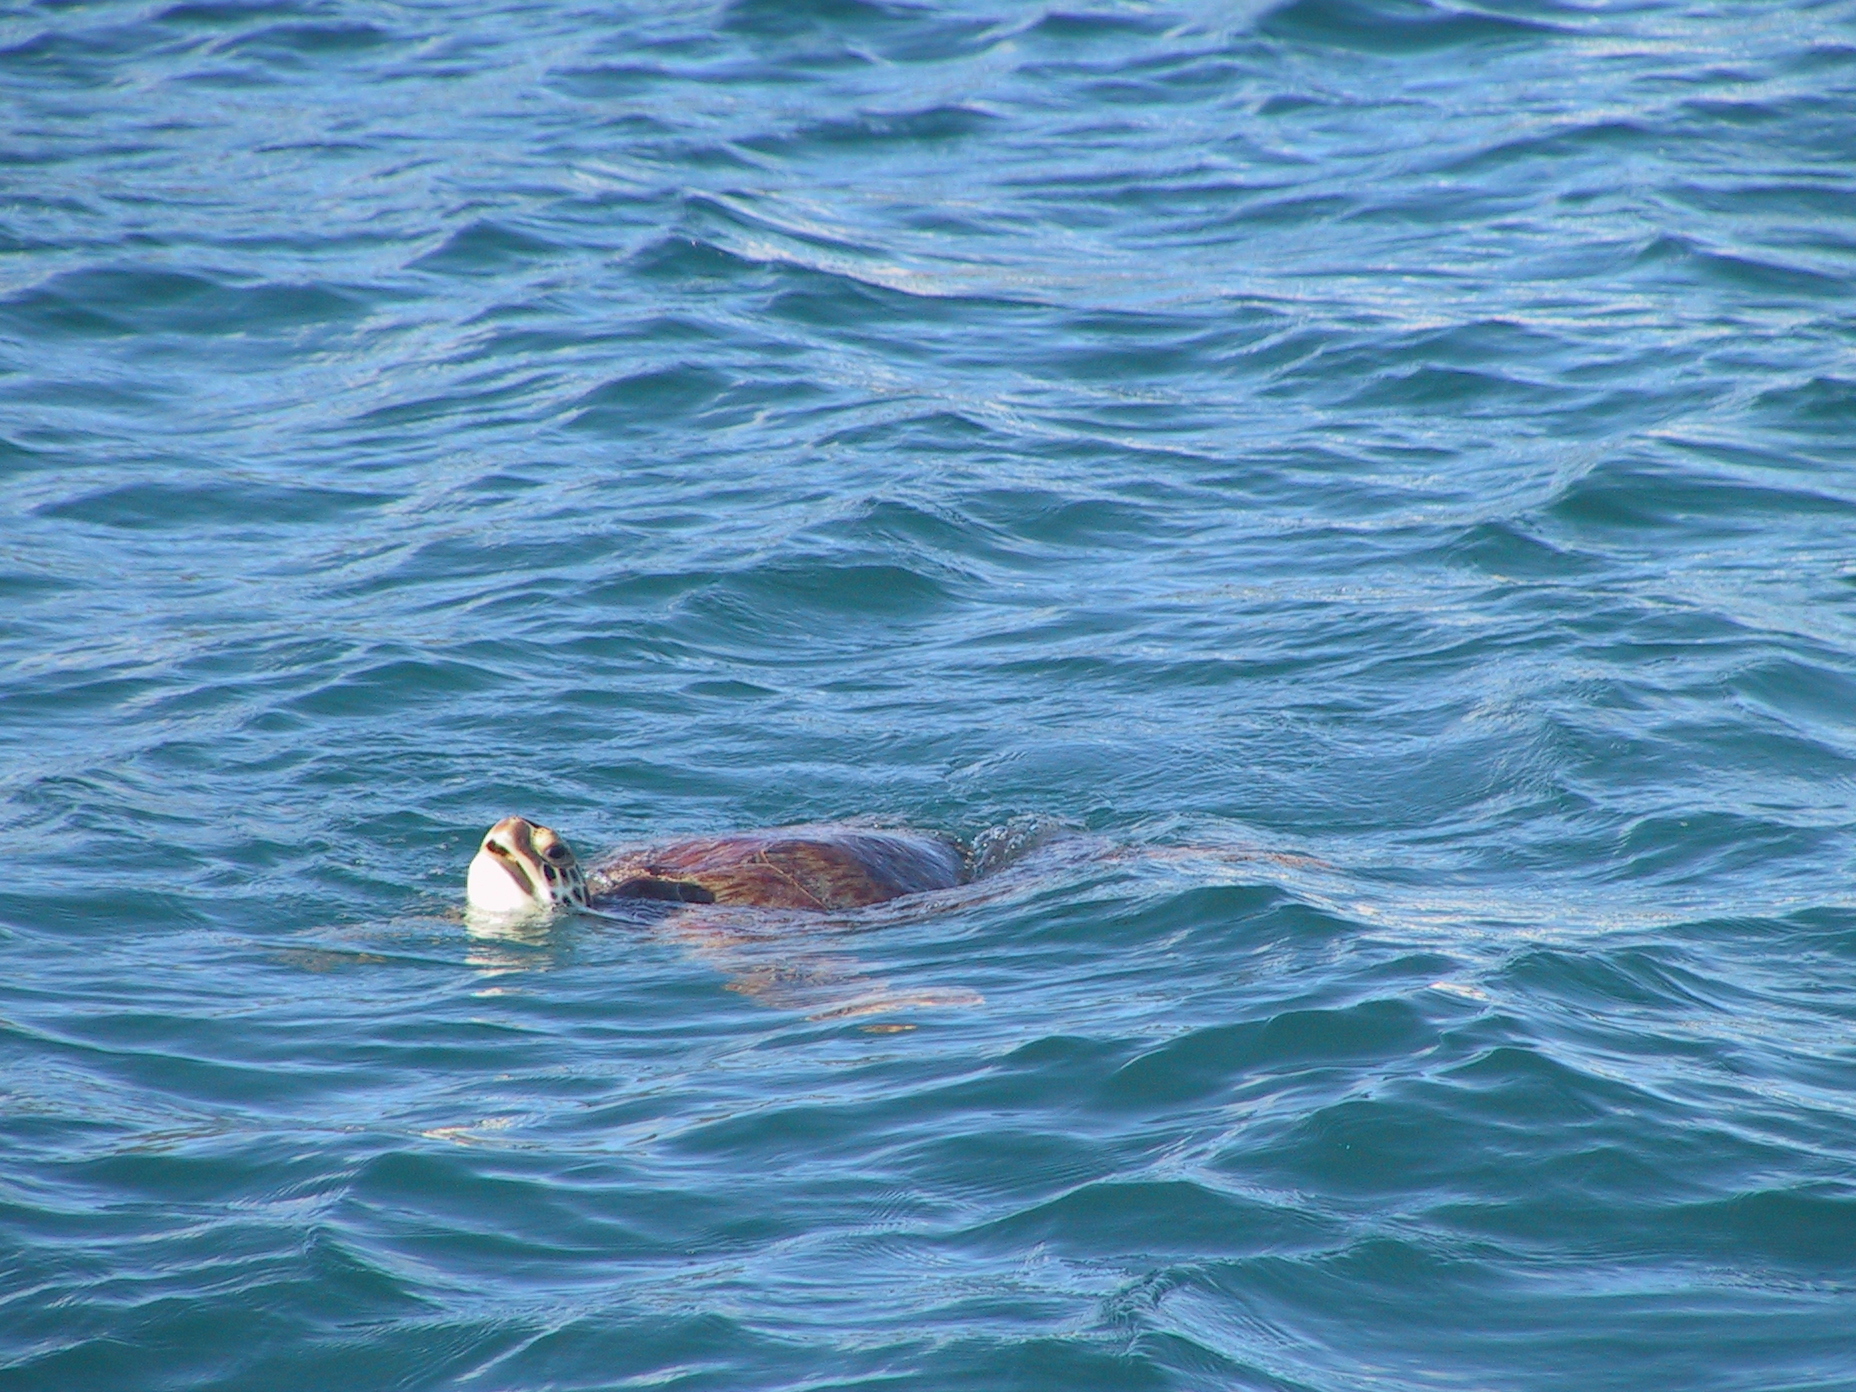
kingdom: Animalia
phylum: Chordata
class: Testudines
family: Cheloniidae
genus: Chelonia
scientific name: Chelonia mydas
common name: Green turtle
